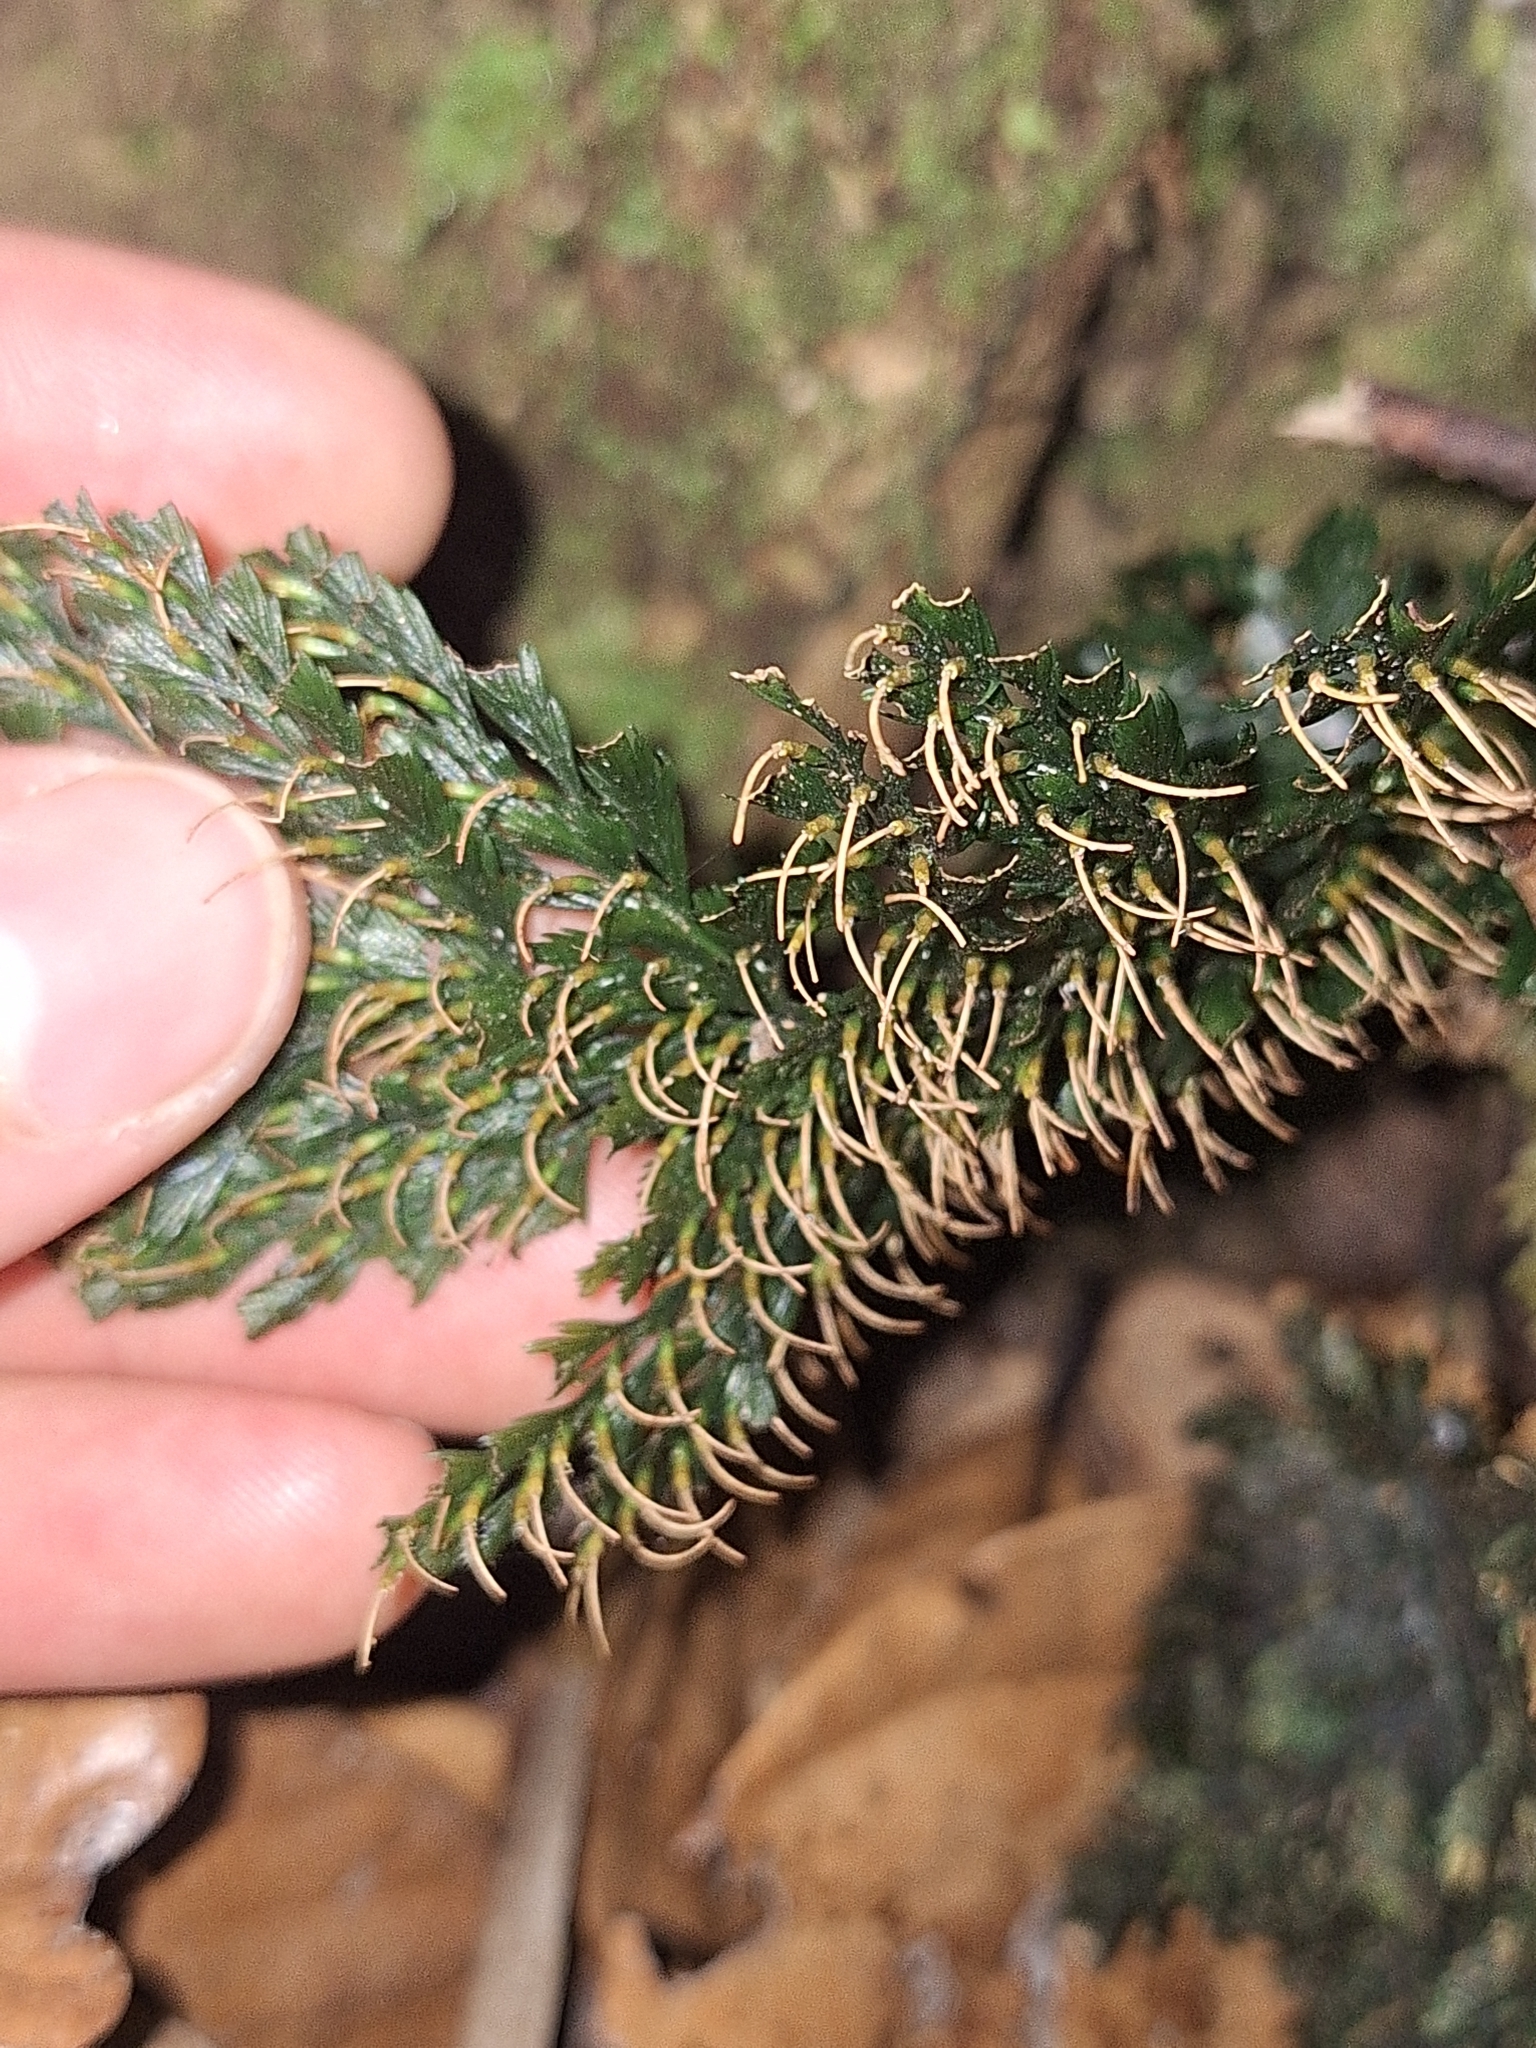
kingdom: Plantae
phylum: Tracheophyta
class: Polypodiopsida
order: Hymenophyllales
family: Hymenophyllaceae
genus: Abrodictyum
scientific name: Abrodictyum elongatum
